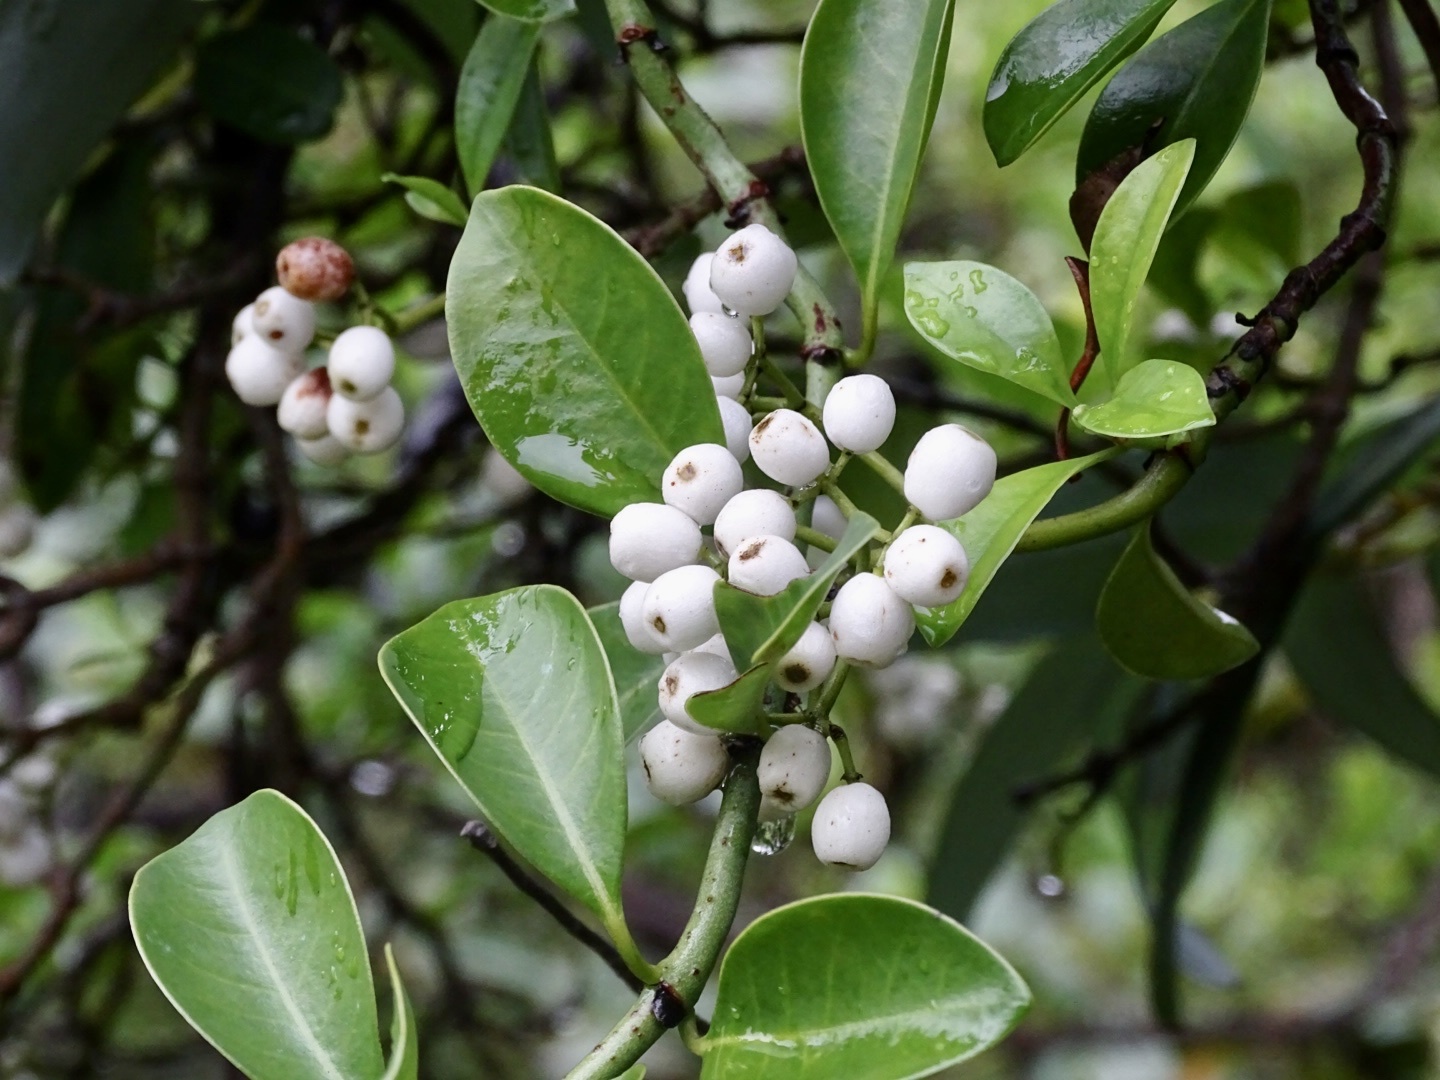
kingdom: Plantae
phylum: Tracheophyta
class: Magnoliopsida
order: Gentianales
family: Rubiaceae
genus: Psychotria
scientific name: Psychotria serpens
